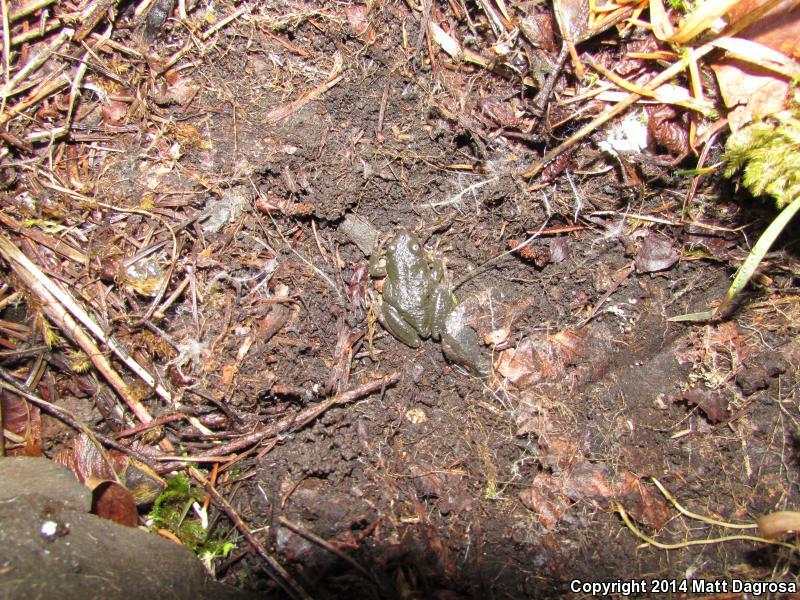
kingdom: Animalia
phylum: Chordata
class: Amphibia
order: Anura
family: Hylidae
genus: Pseudacris
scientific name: Pseudacris regilla
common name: Pacific chorus frog
